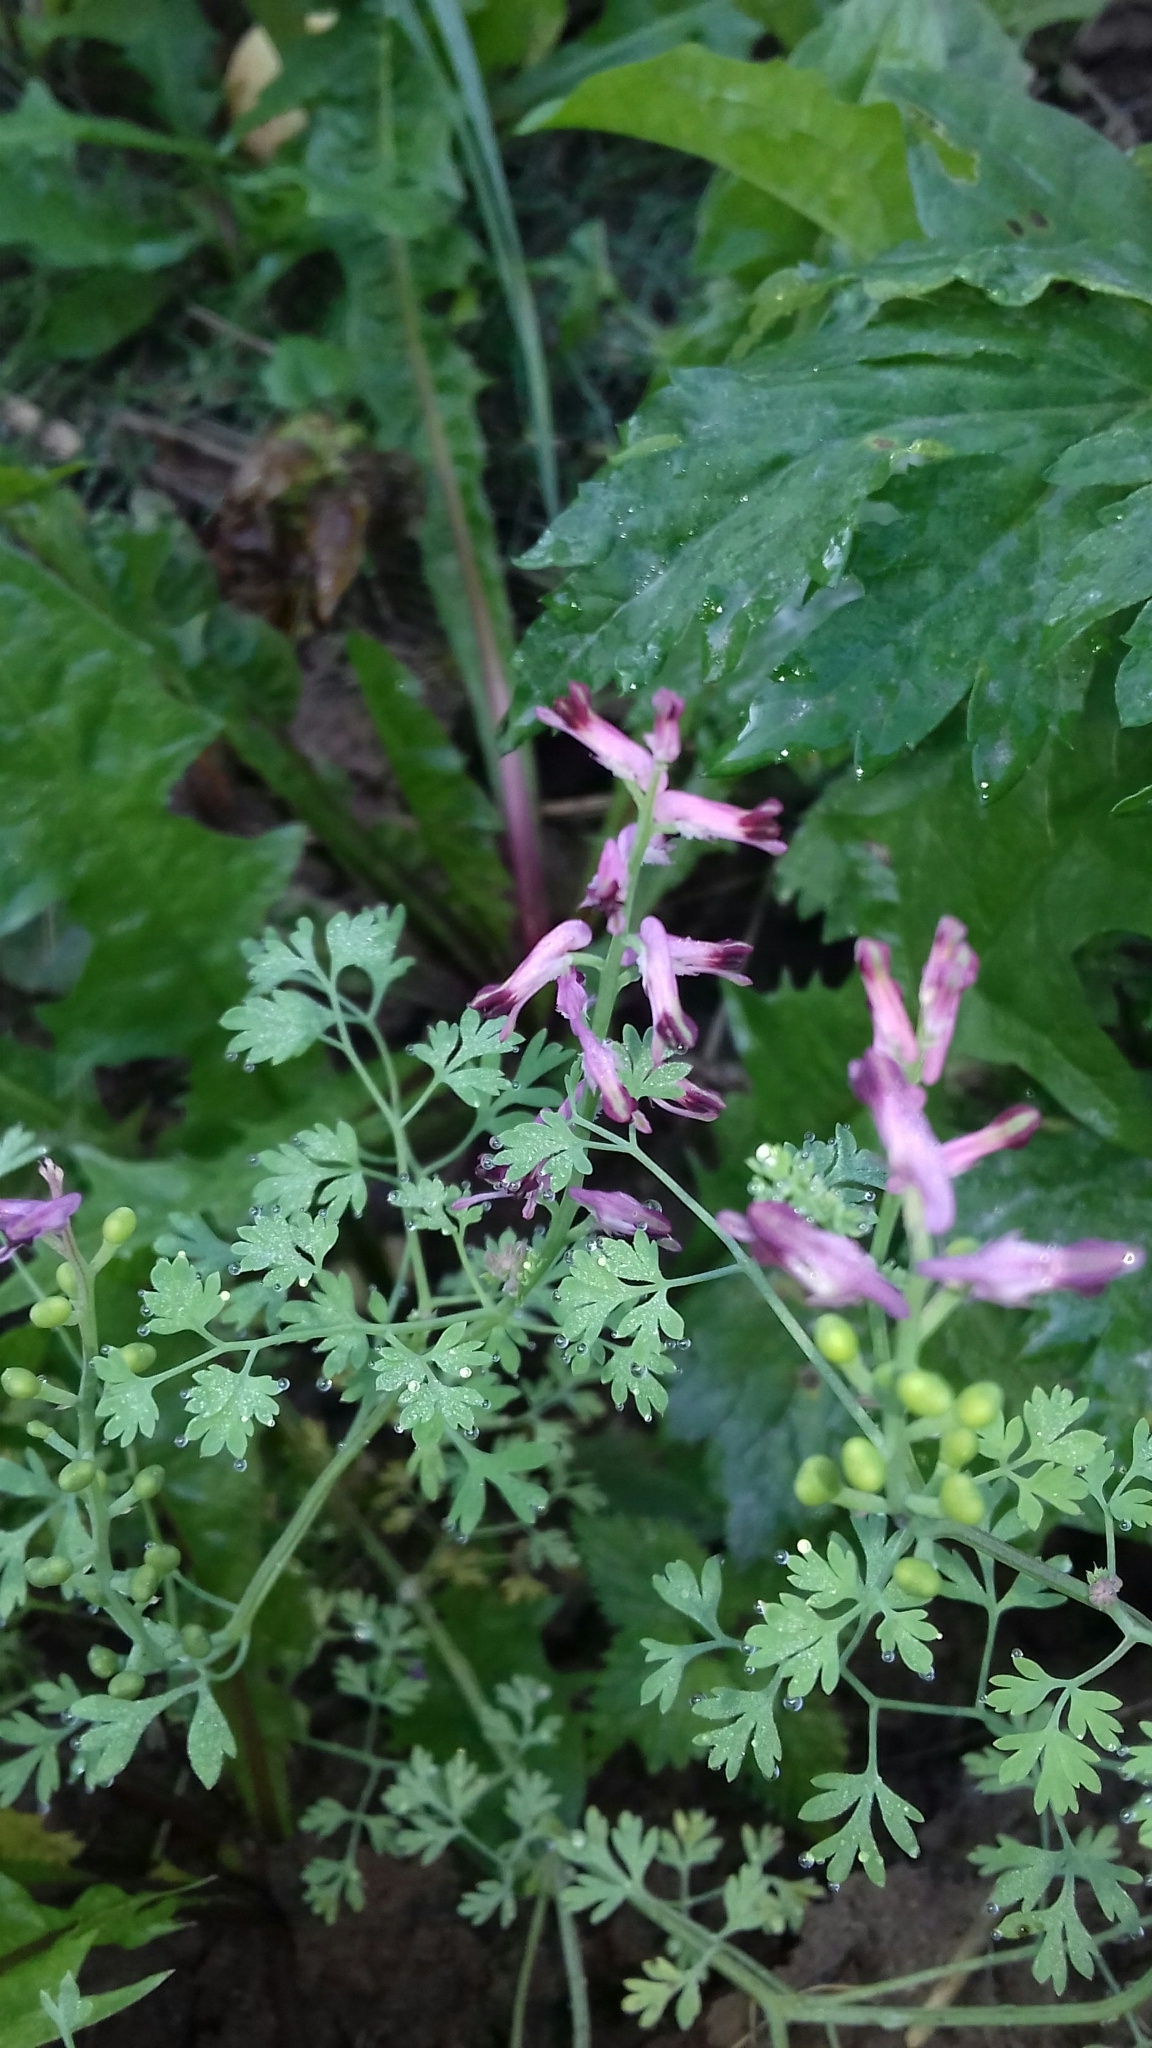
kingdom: Plantae
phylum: Tracheophyta
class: Magnoliopsida
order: Ranunculales
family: Papaveraceae
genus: Fumaria
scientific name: Fumaria officinalis
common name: Common fumitory
